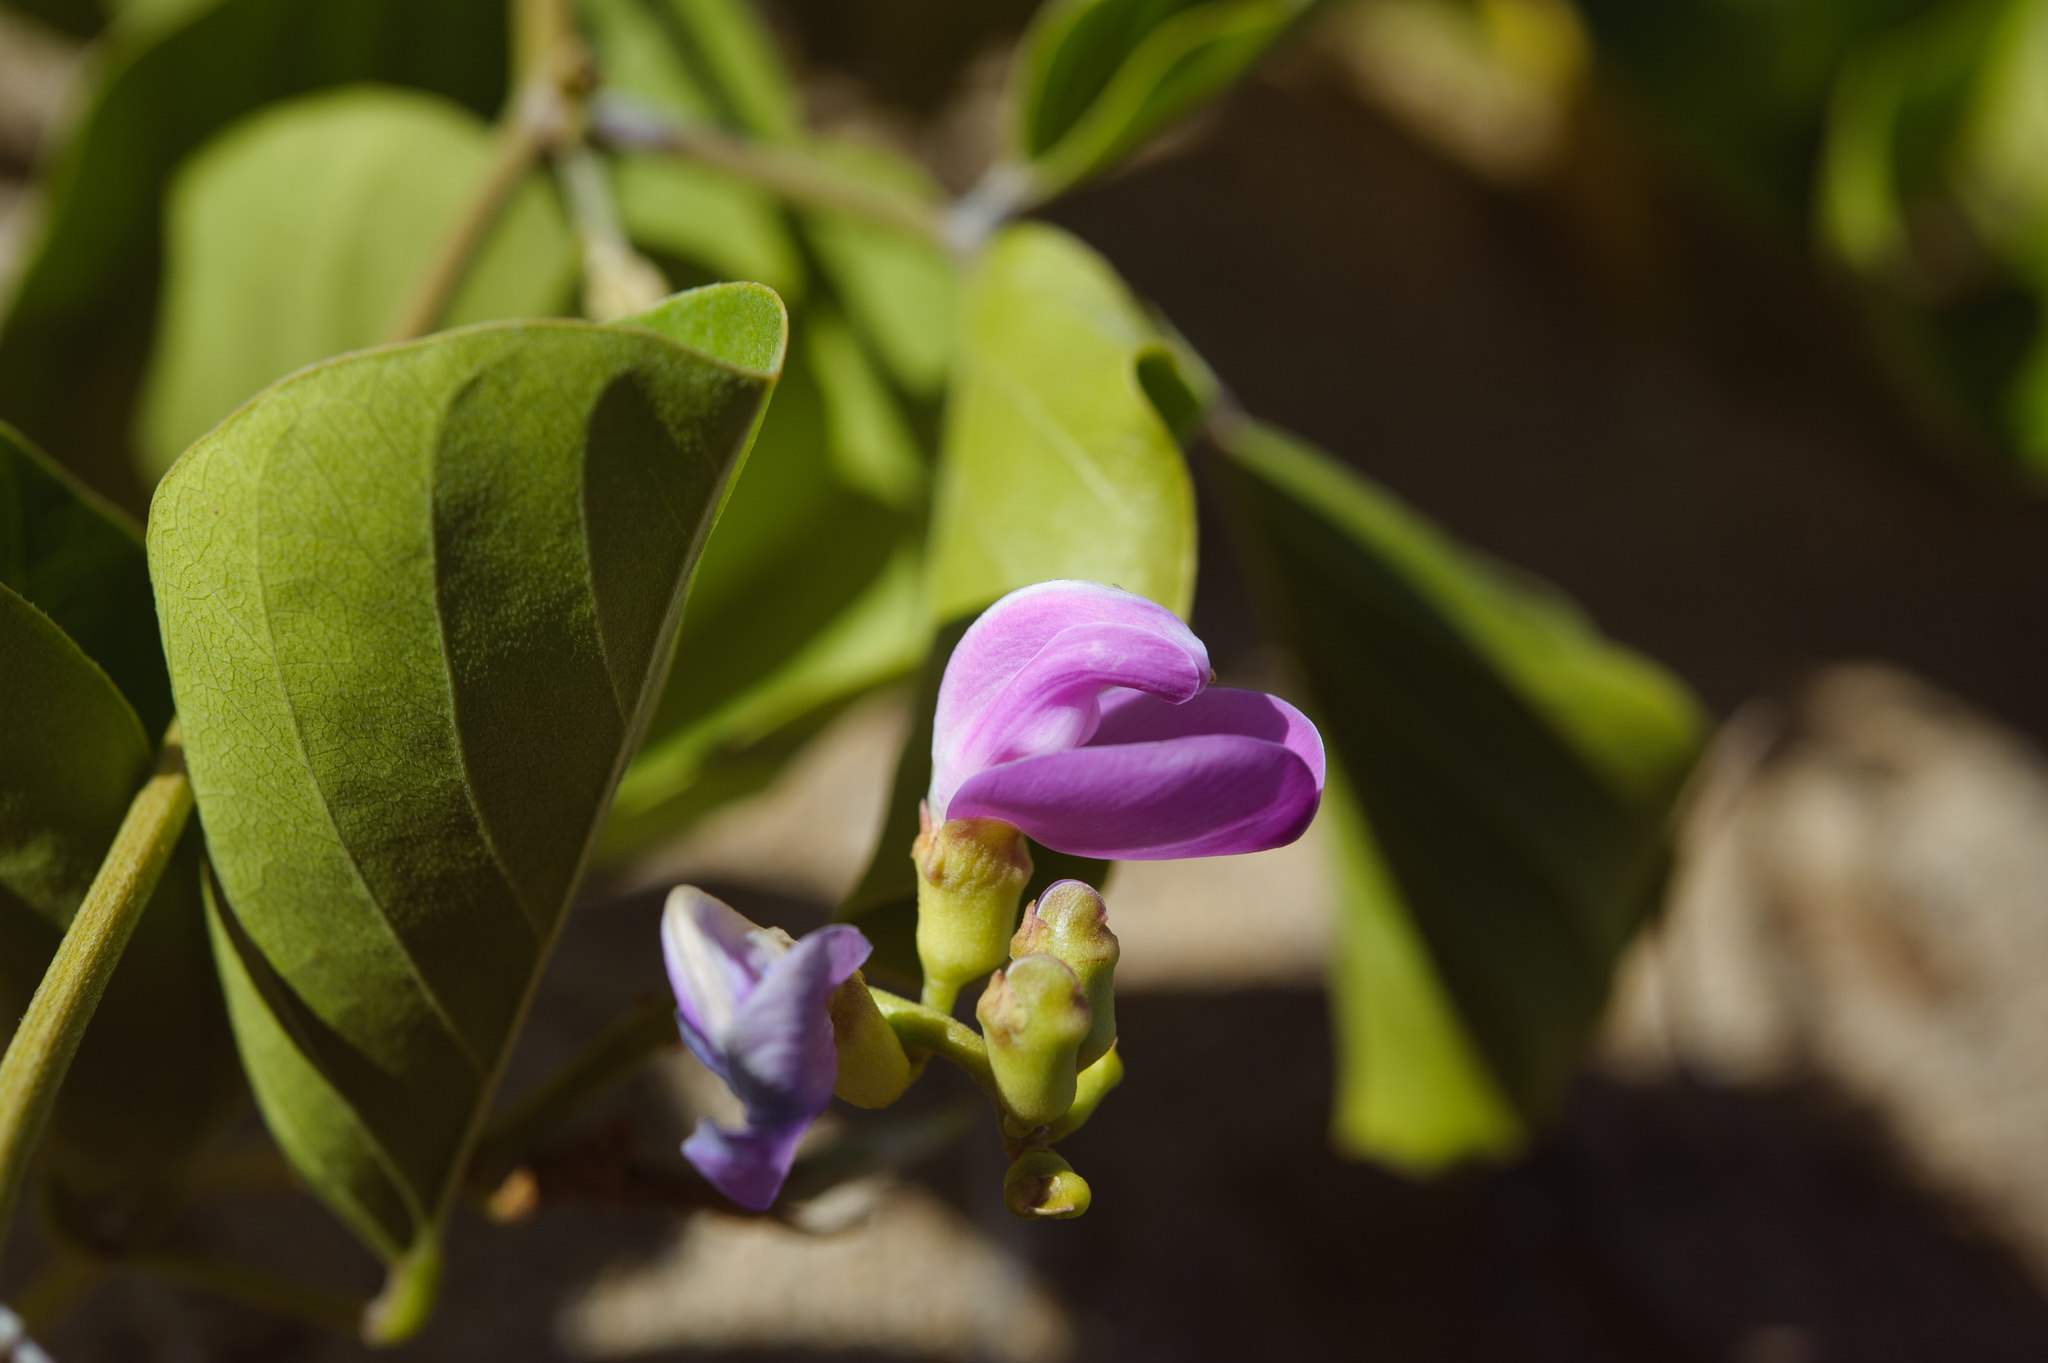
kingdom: Plantae
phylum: Tracheophyta
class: Magnoliopsida
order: Fabales
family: Fabaceae
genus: Canavalia
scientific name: Canavalia rosea
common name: Beach-bean
